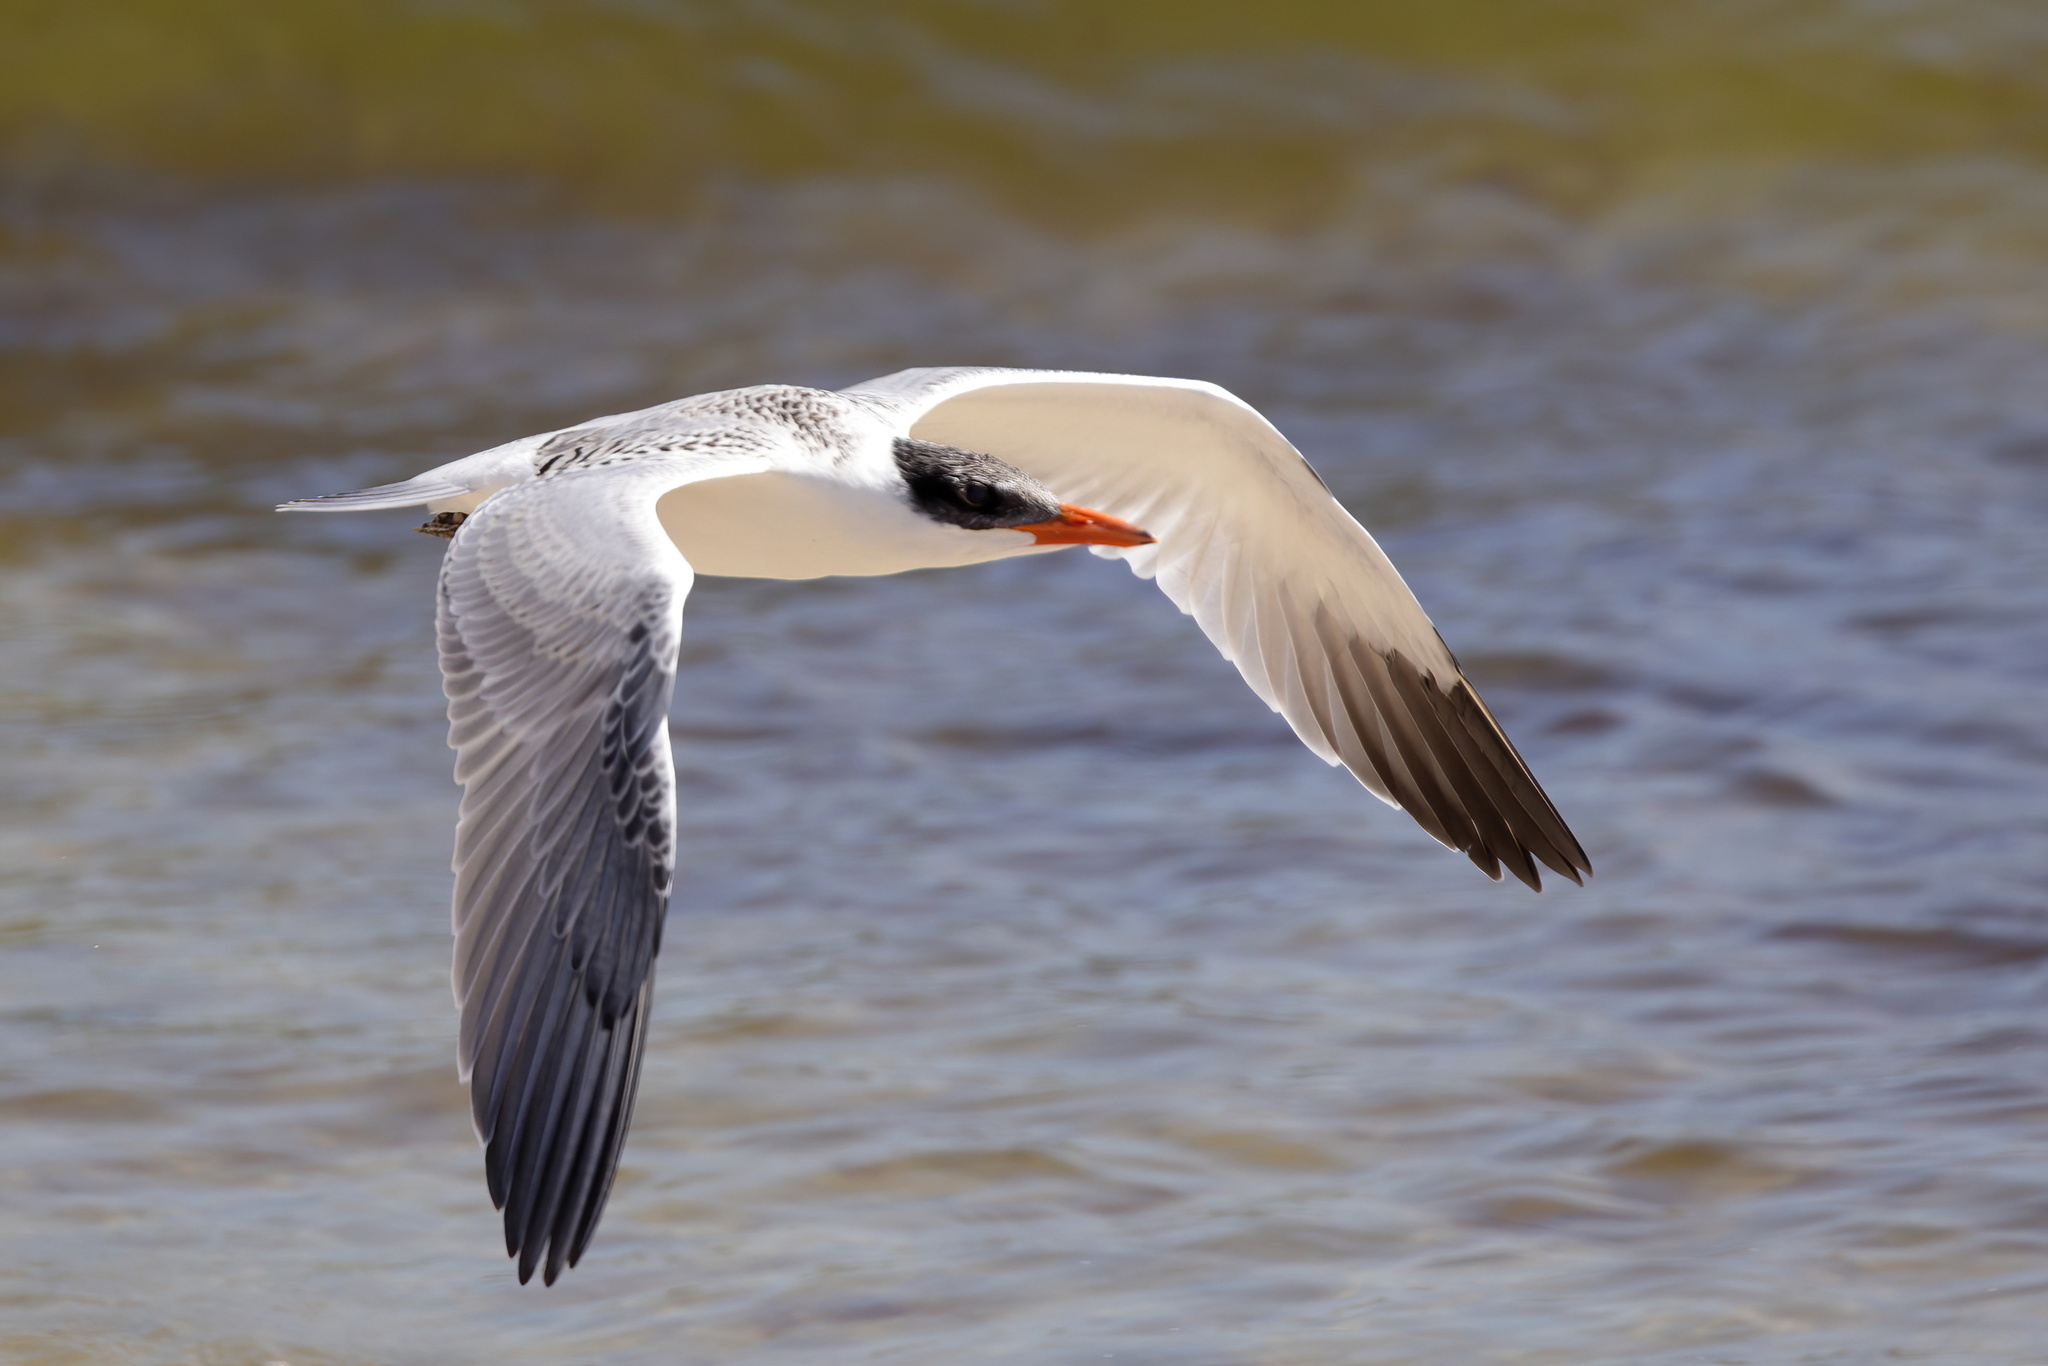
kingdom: Animalia
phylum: Chordata
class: Aves
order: Charadriiformes
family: Laridae
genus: Hydroprogne
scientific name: Hydroprogne caspia
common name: Caspian tern
